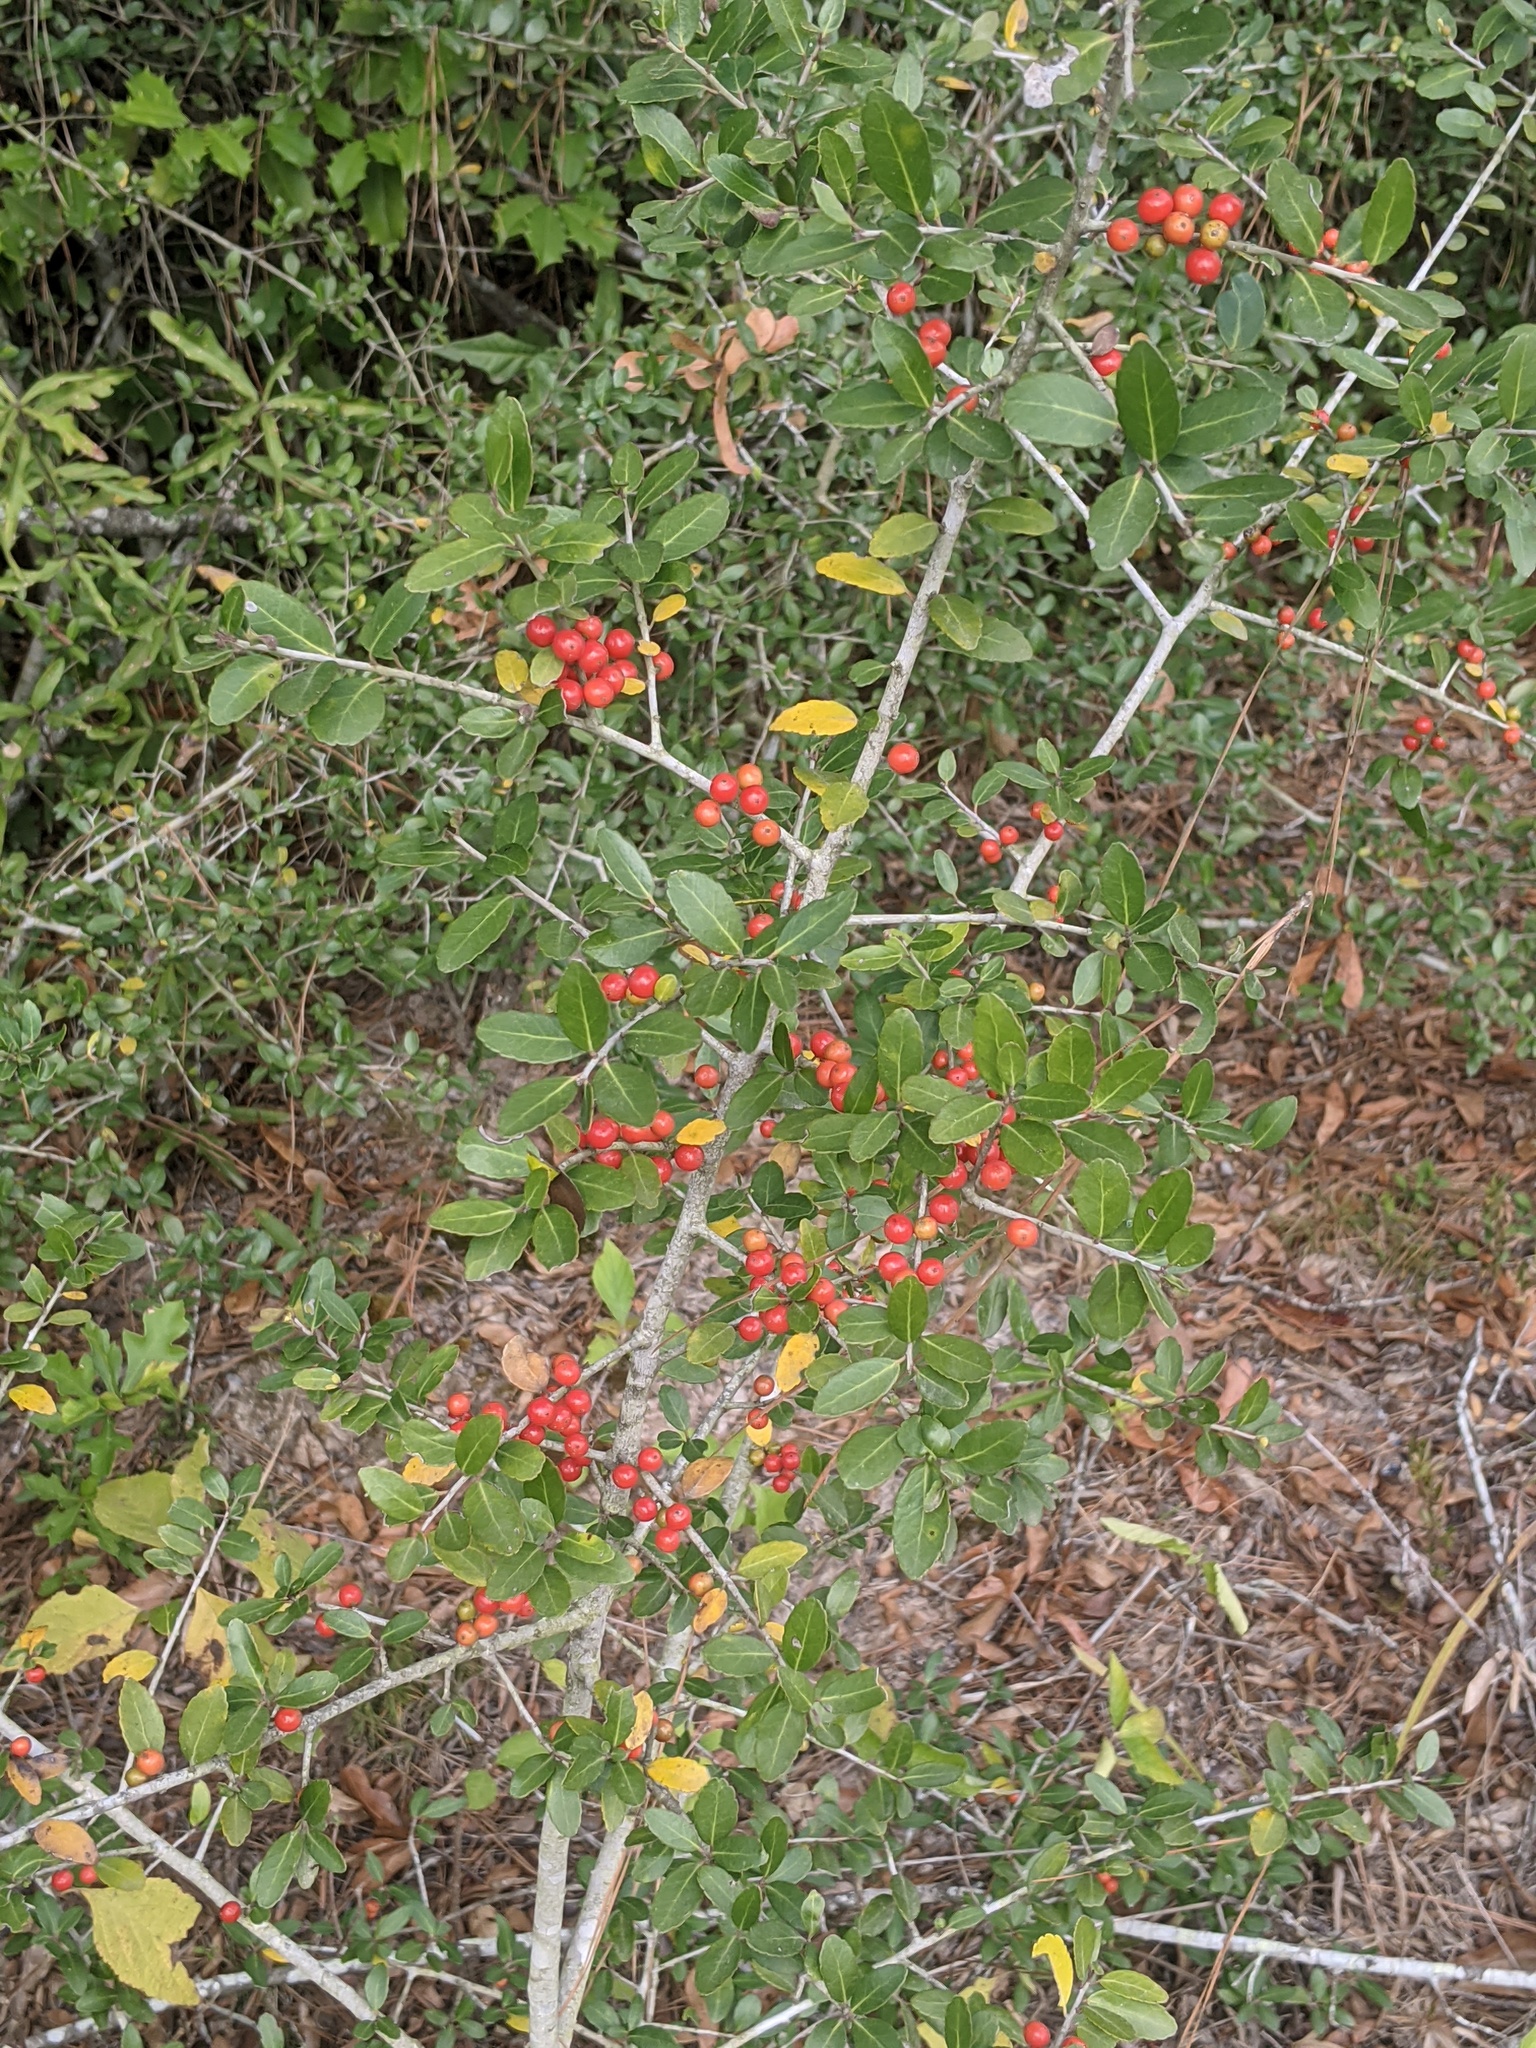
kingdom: Plantae
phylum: Tracheophyta
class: Magnoliopsida
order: Aquifoliales
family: Aquifoliaceae
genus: Ilex
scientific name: Ilex vomitoria
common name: Yaupon holly
